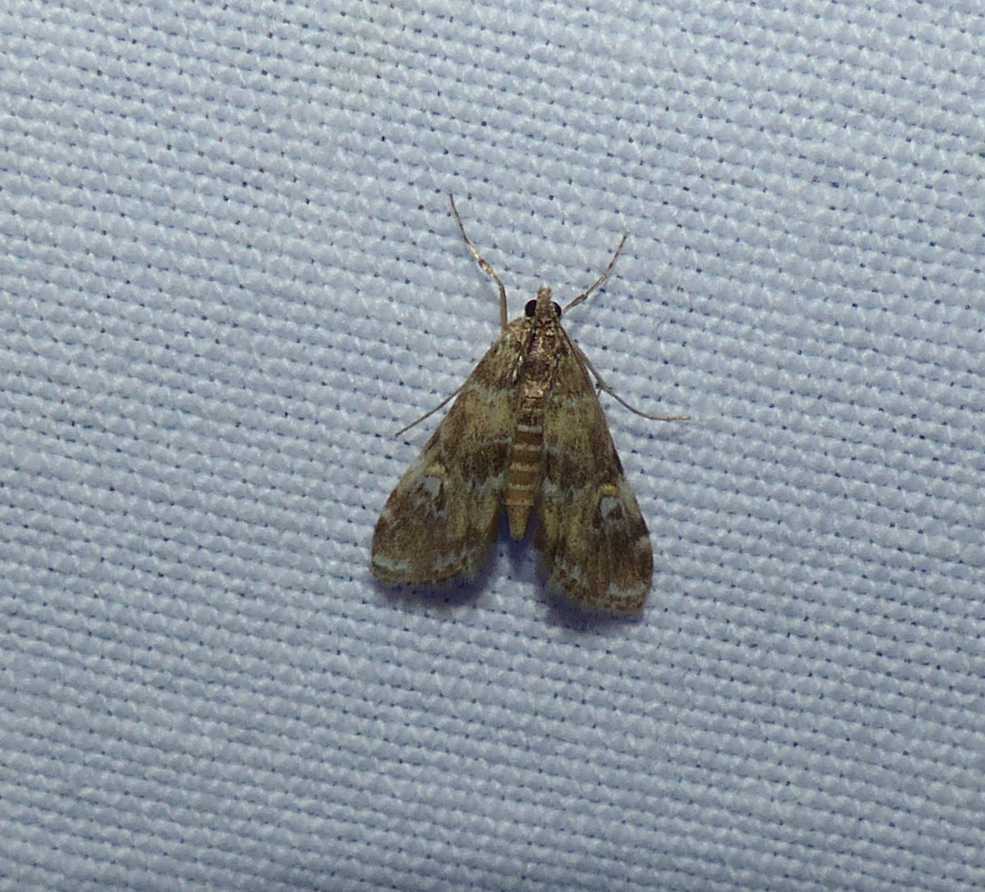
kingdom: Animalia
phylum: Arthropoda
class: Insecta
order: Lepidoptera
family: Crambidae
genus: Elophila
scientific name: Elophila obliteralis
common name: Waterlily leafcutter moth
